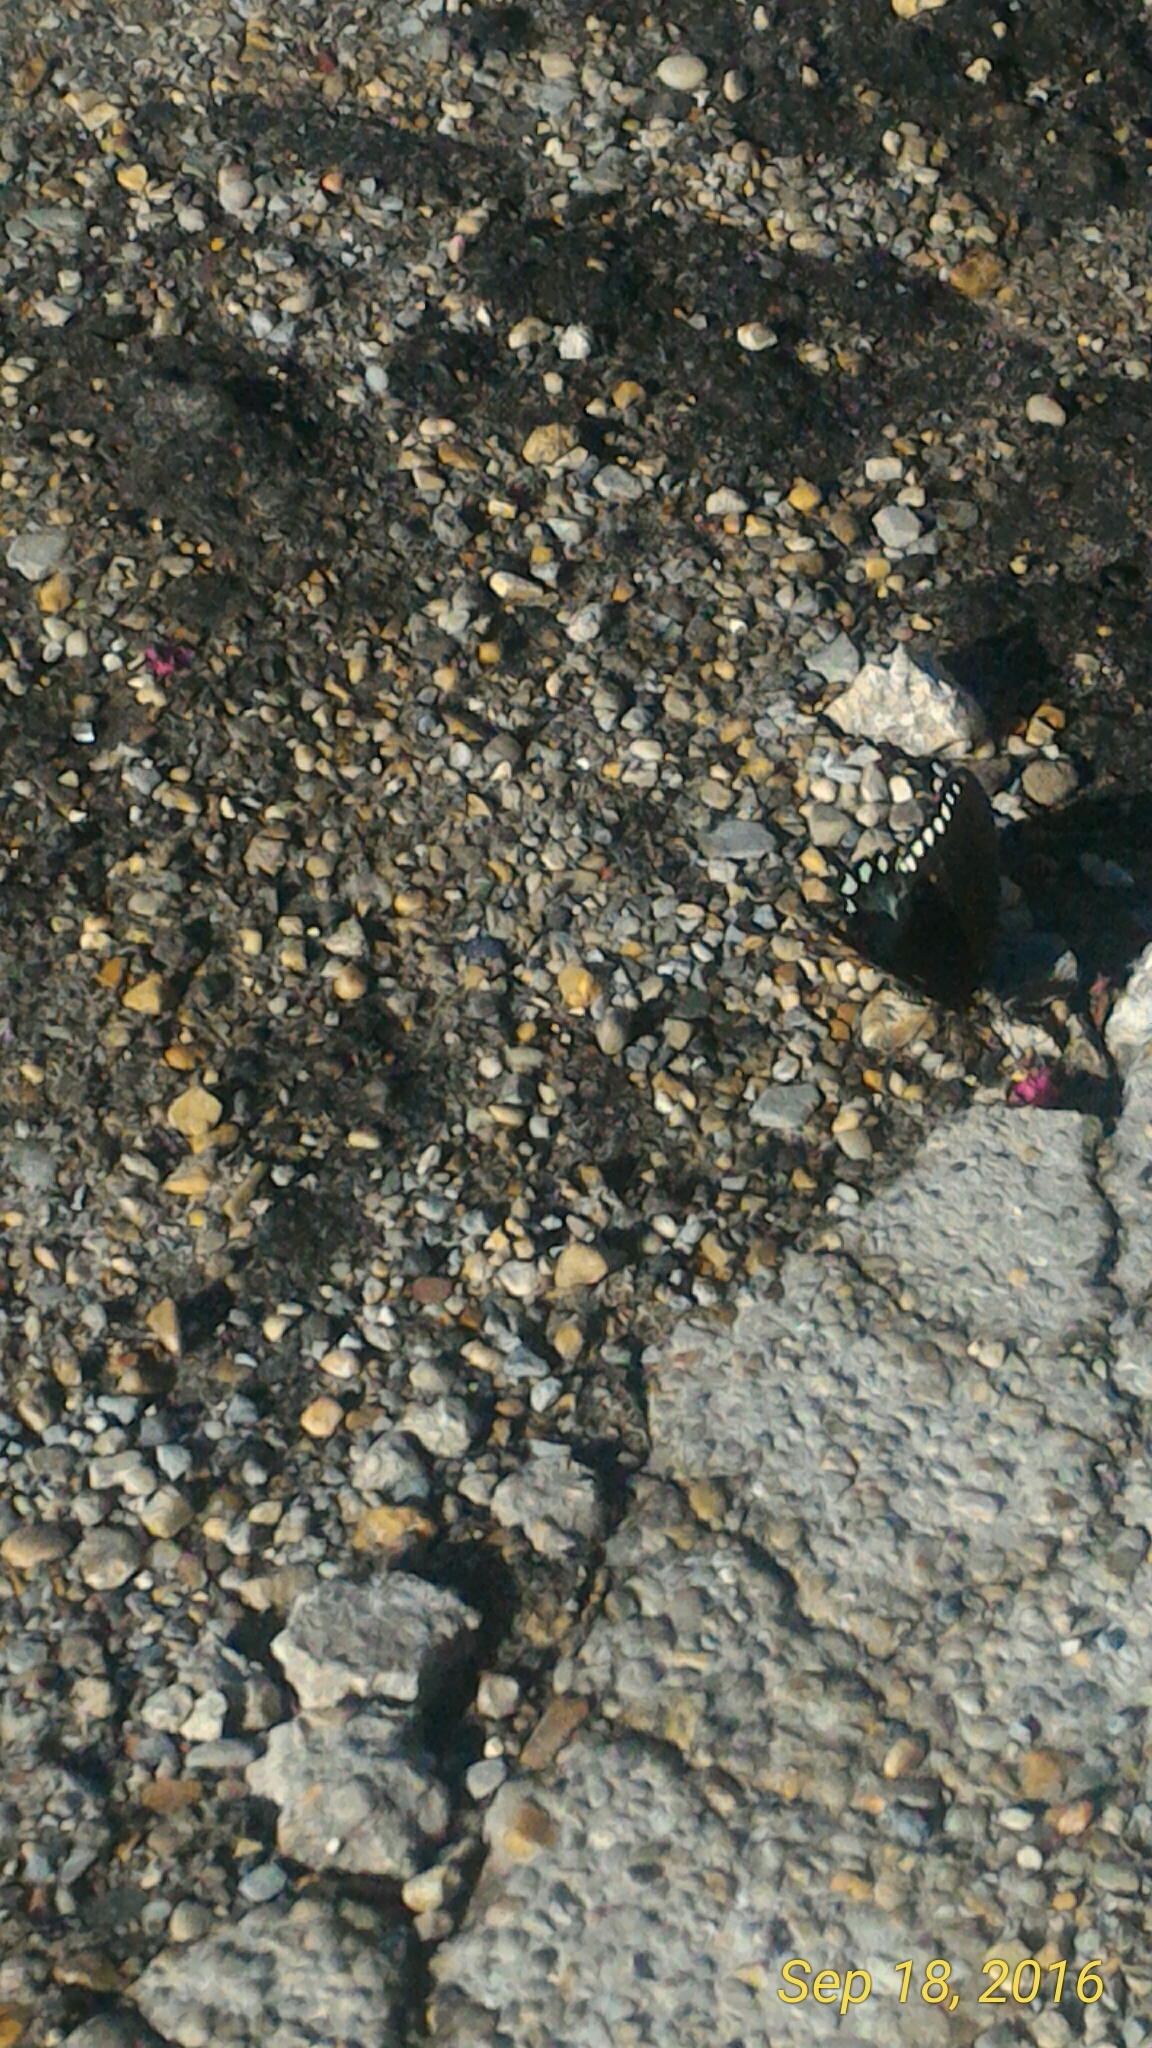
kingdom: Animalia
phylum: Arthropoda
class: Insecta
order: Lepidoptera
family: Papilionidae
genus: Papilio
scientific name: Papilio troilus
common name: Spicebush swallowtail
